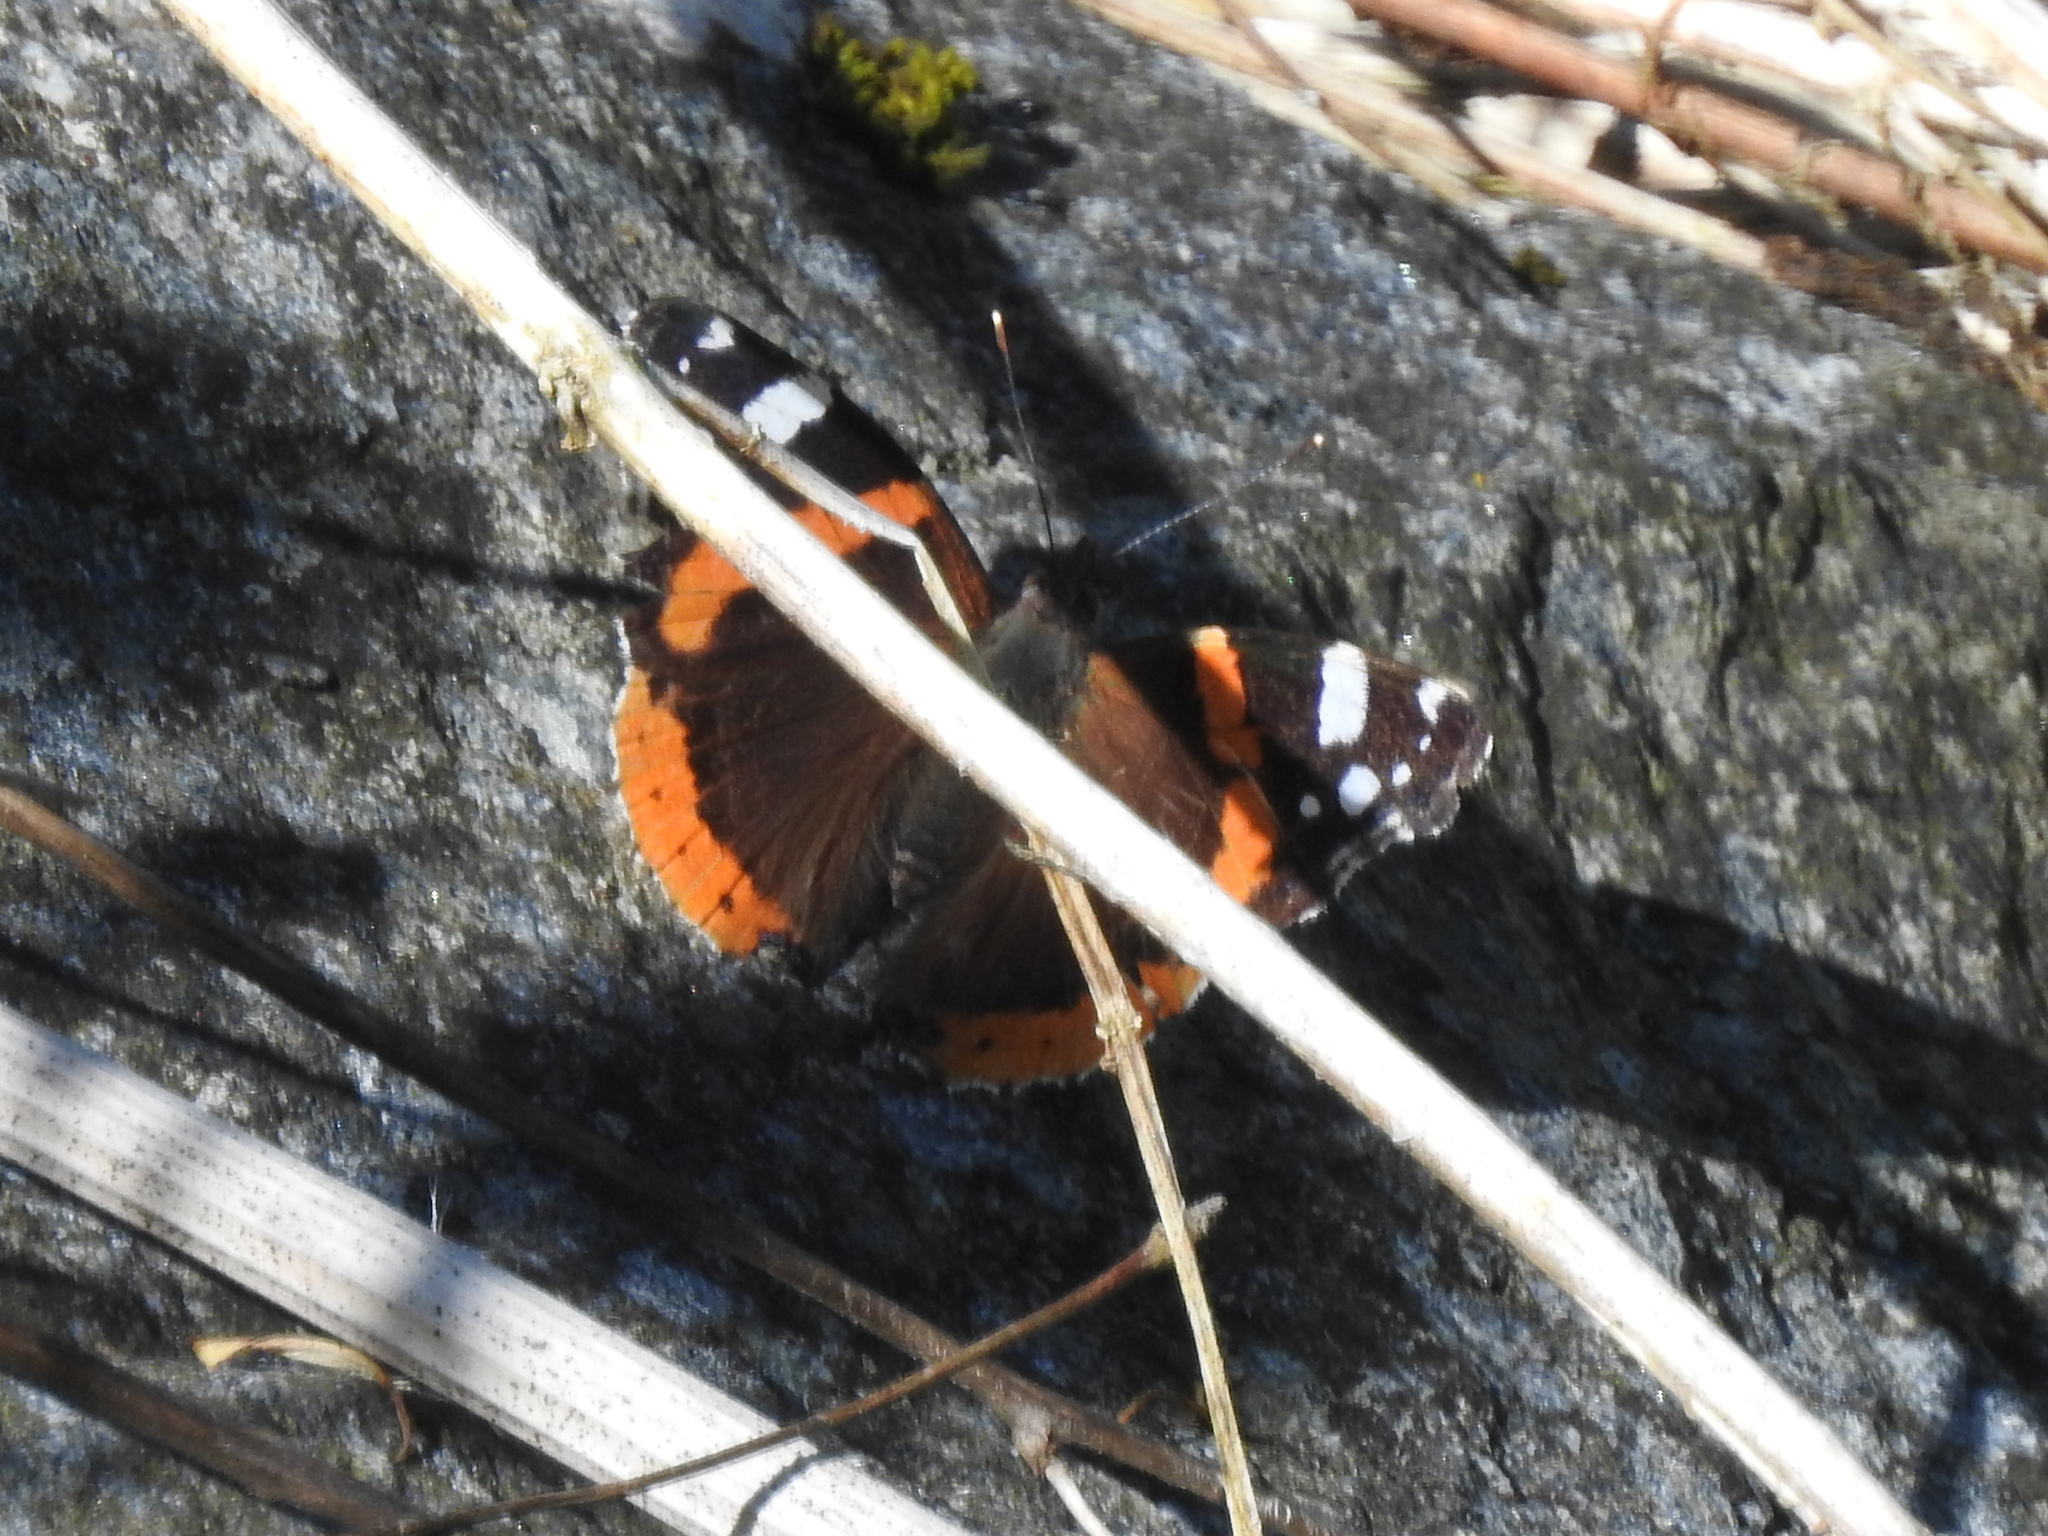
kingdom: Animalia
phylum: Arthropoda
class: Insecta
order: Lepidoptera
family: Nymphalidae
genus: Vanessa
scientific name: Vanessa atalanta
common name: Red admiral
